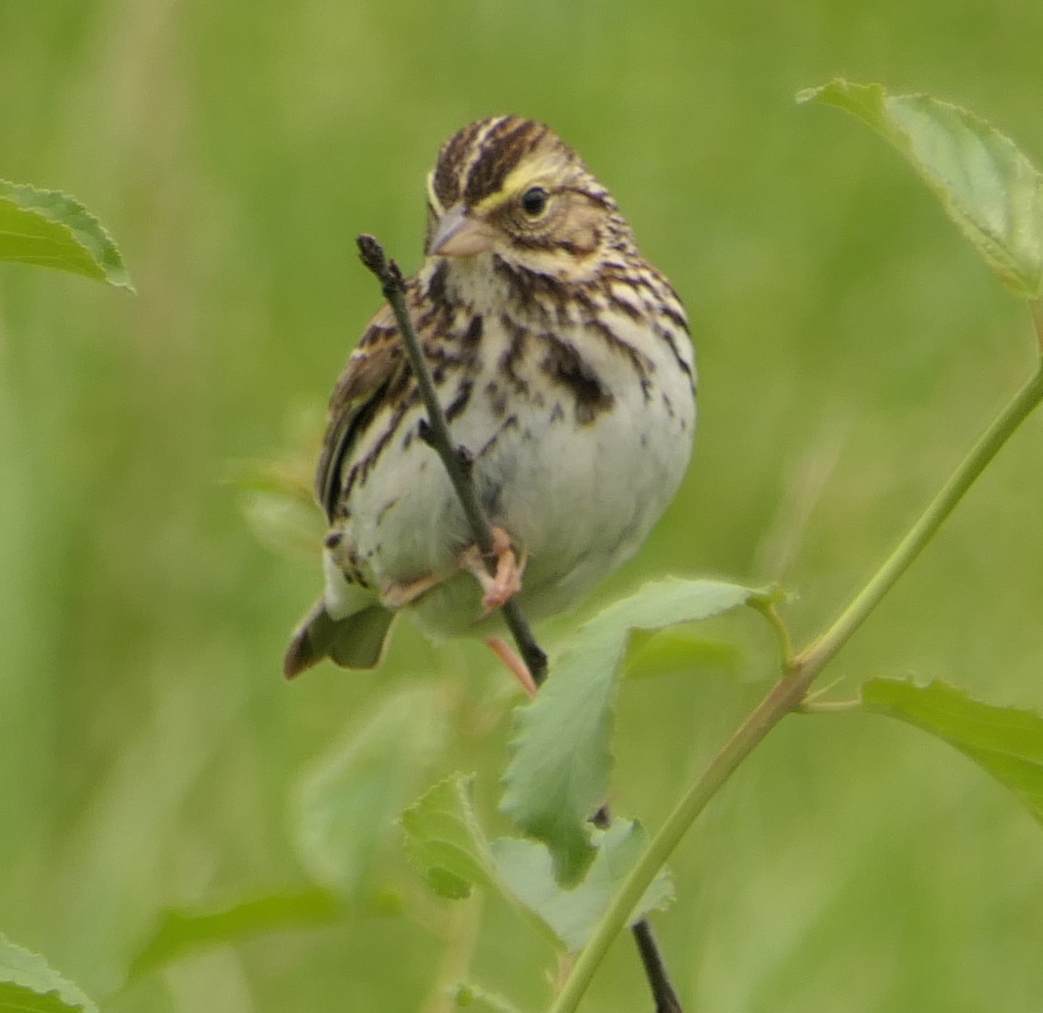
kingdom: Animalia
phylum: Chordata
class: Aves
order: Passeriformes
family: Passerellidae
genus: Passerculus
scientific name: Passerculus sandwichensis
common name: Savannah sparrow
